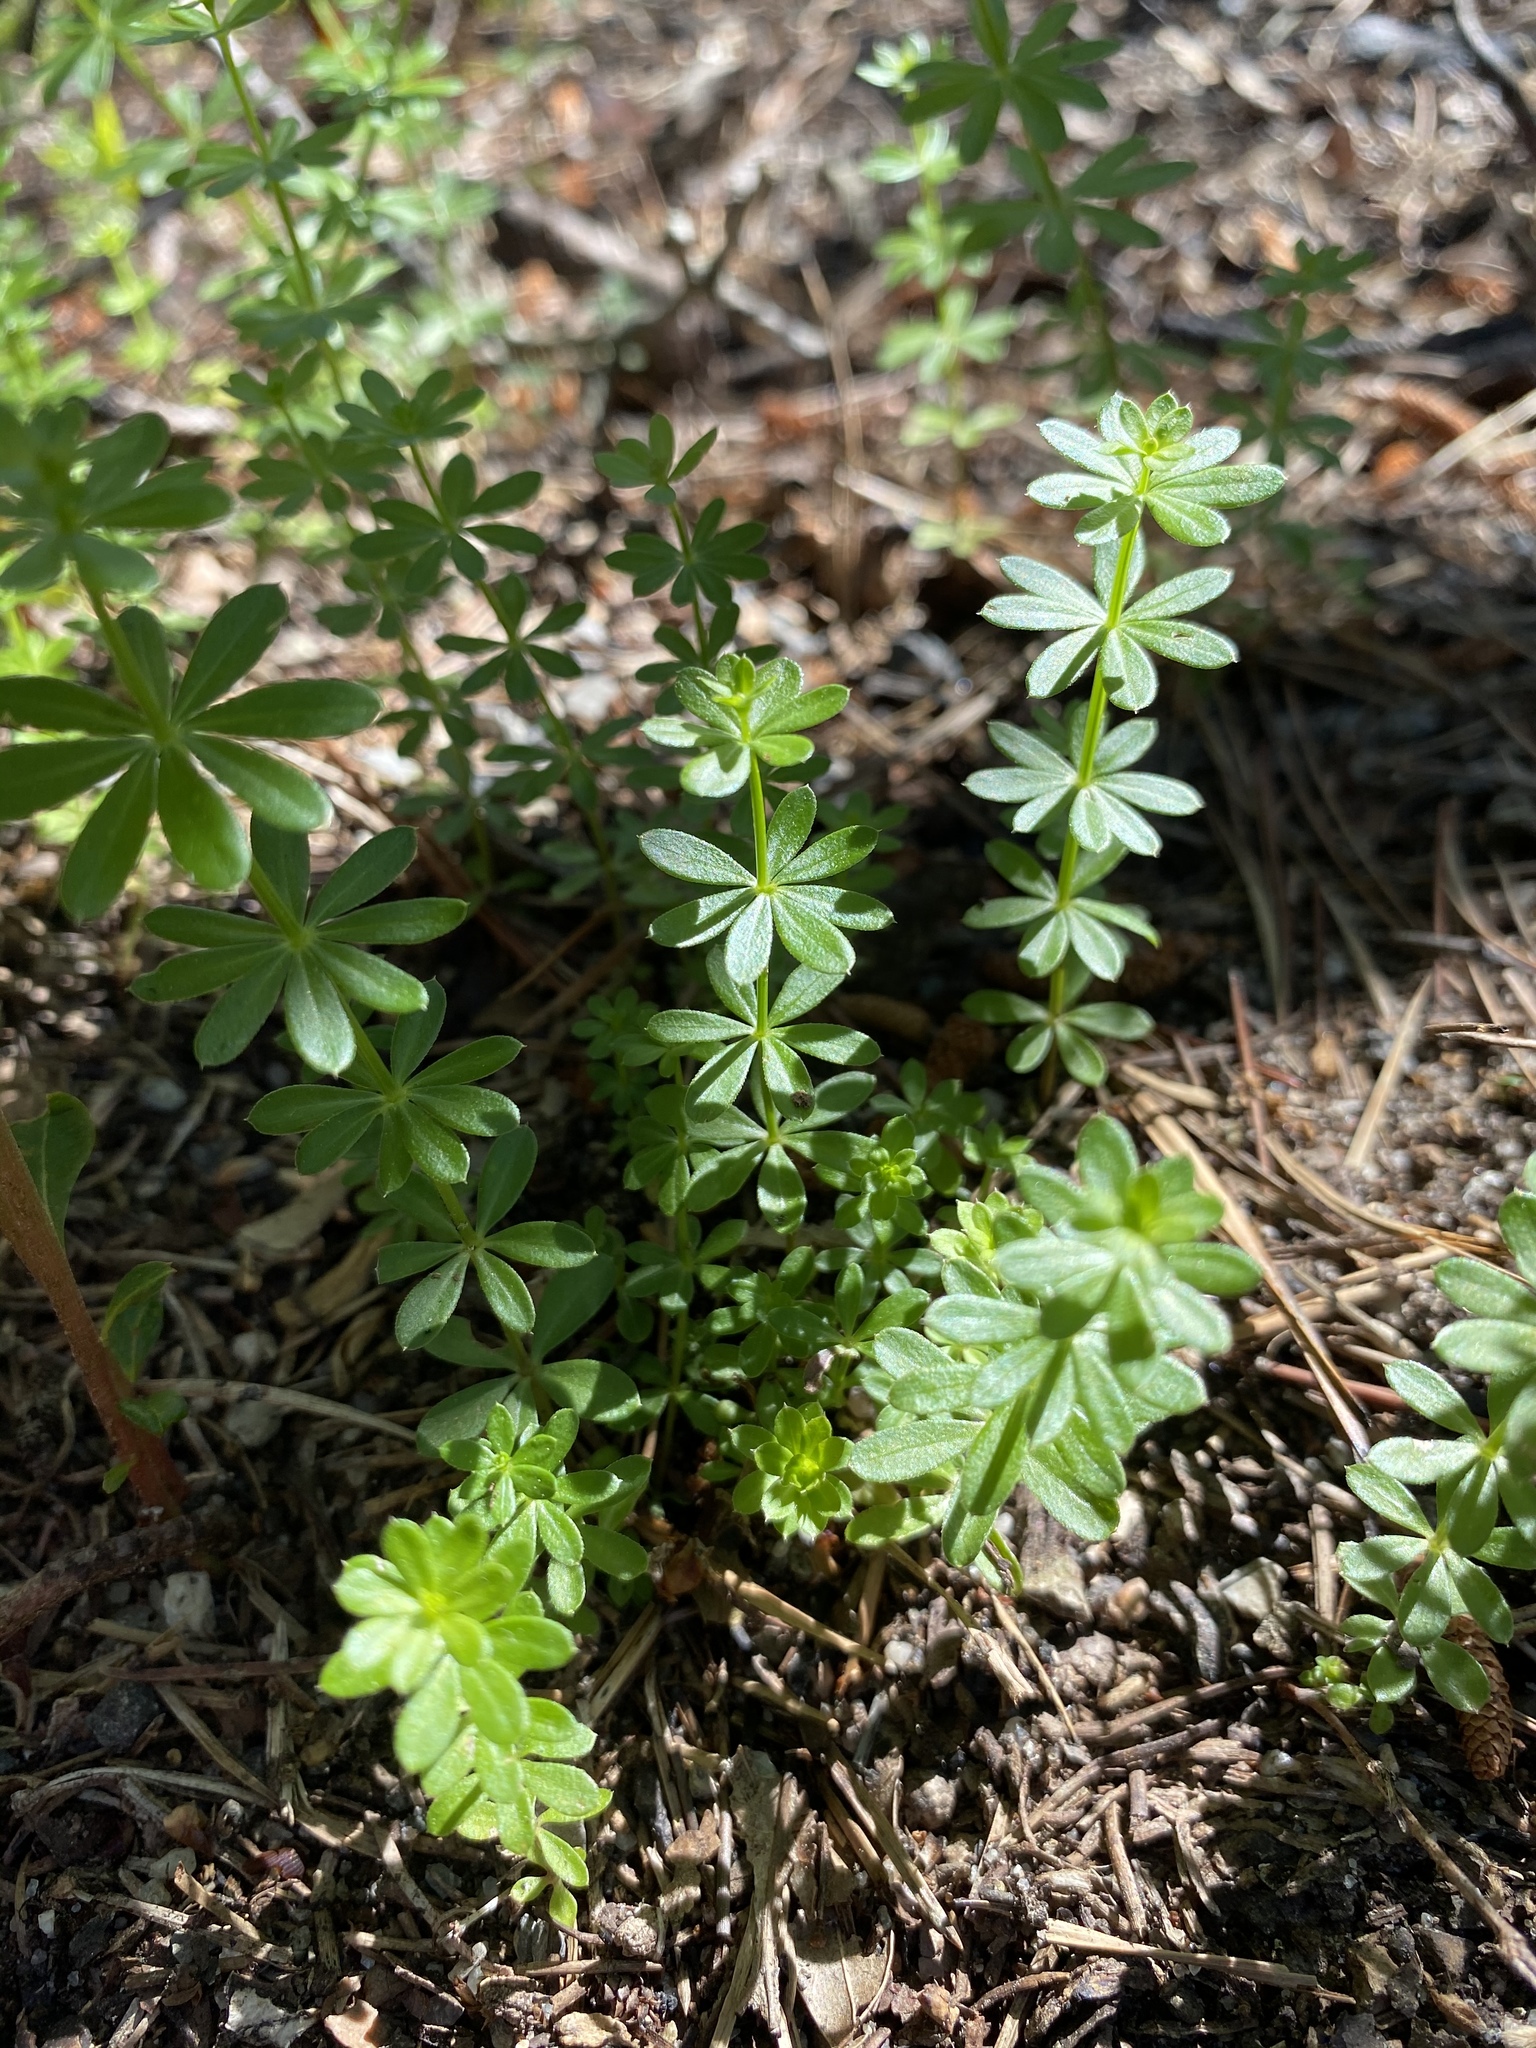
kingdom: Plantae
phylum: Tracheophyta
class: Magnoliopsida
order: Gentianales
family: Rubiaceae
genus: Galium
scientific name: Galium mollugo
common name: Hedge bedstraw
